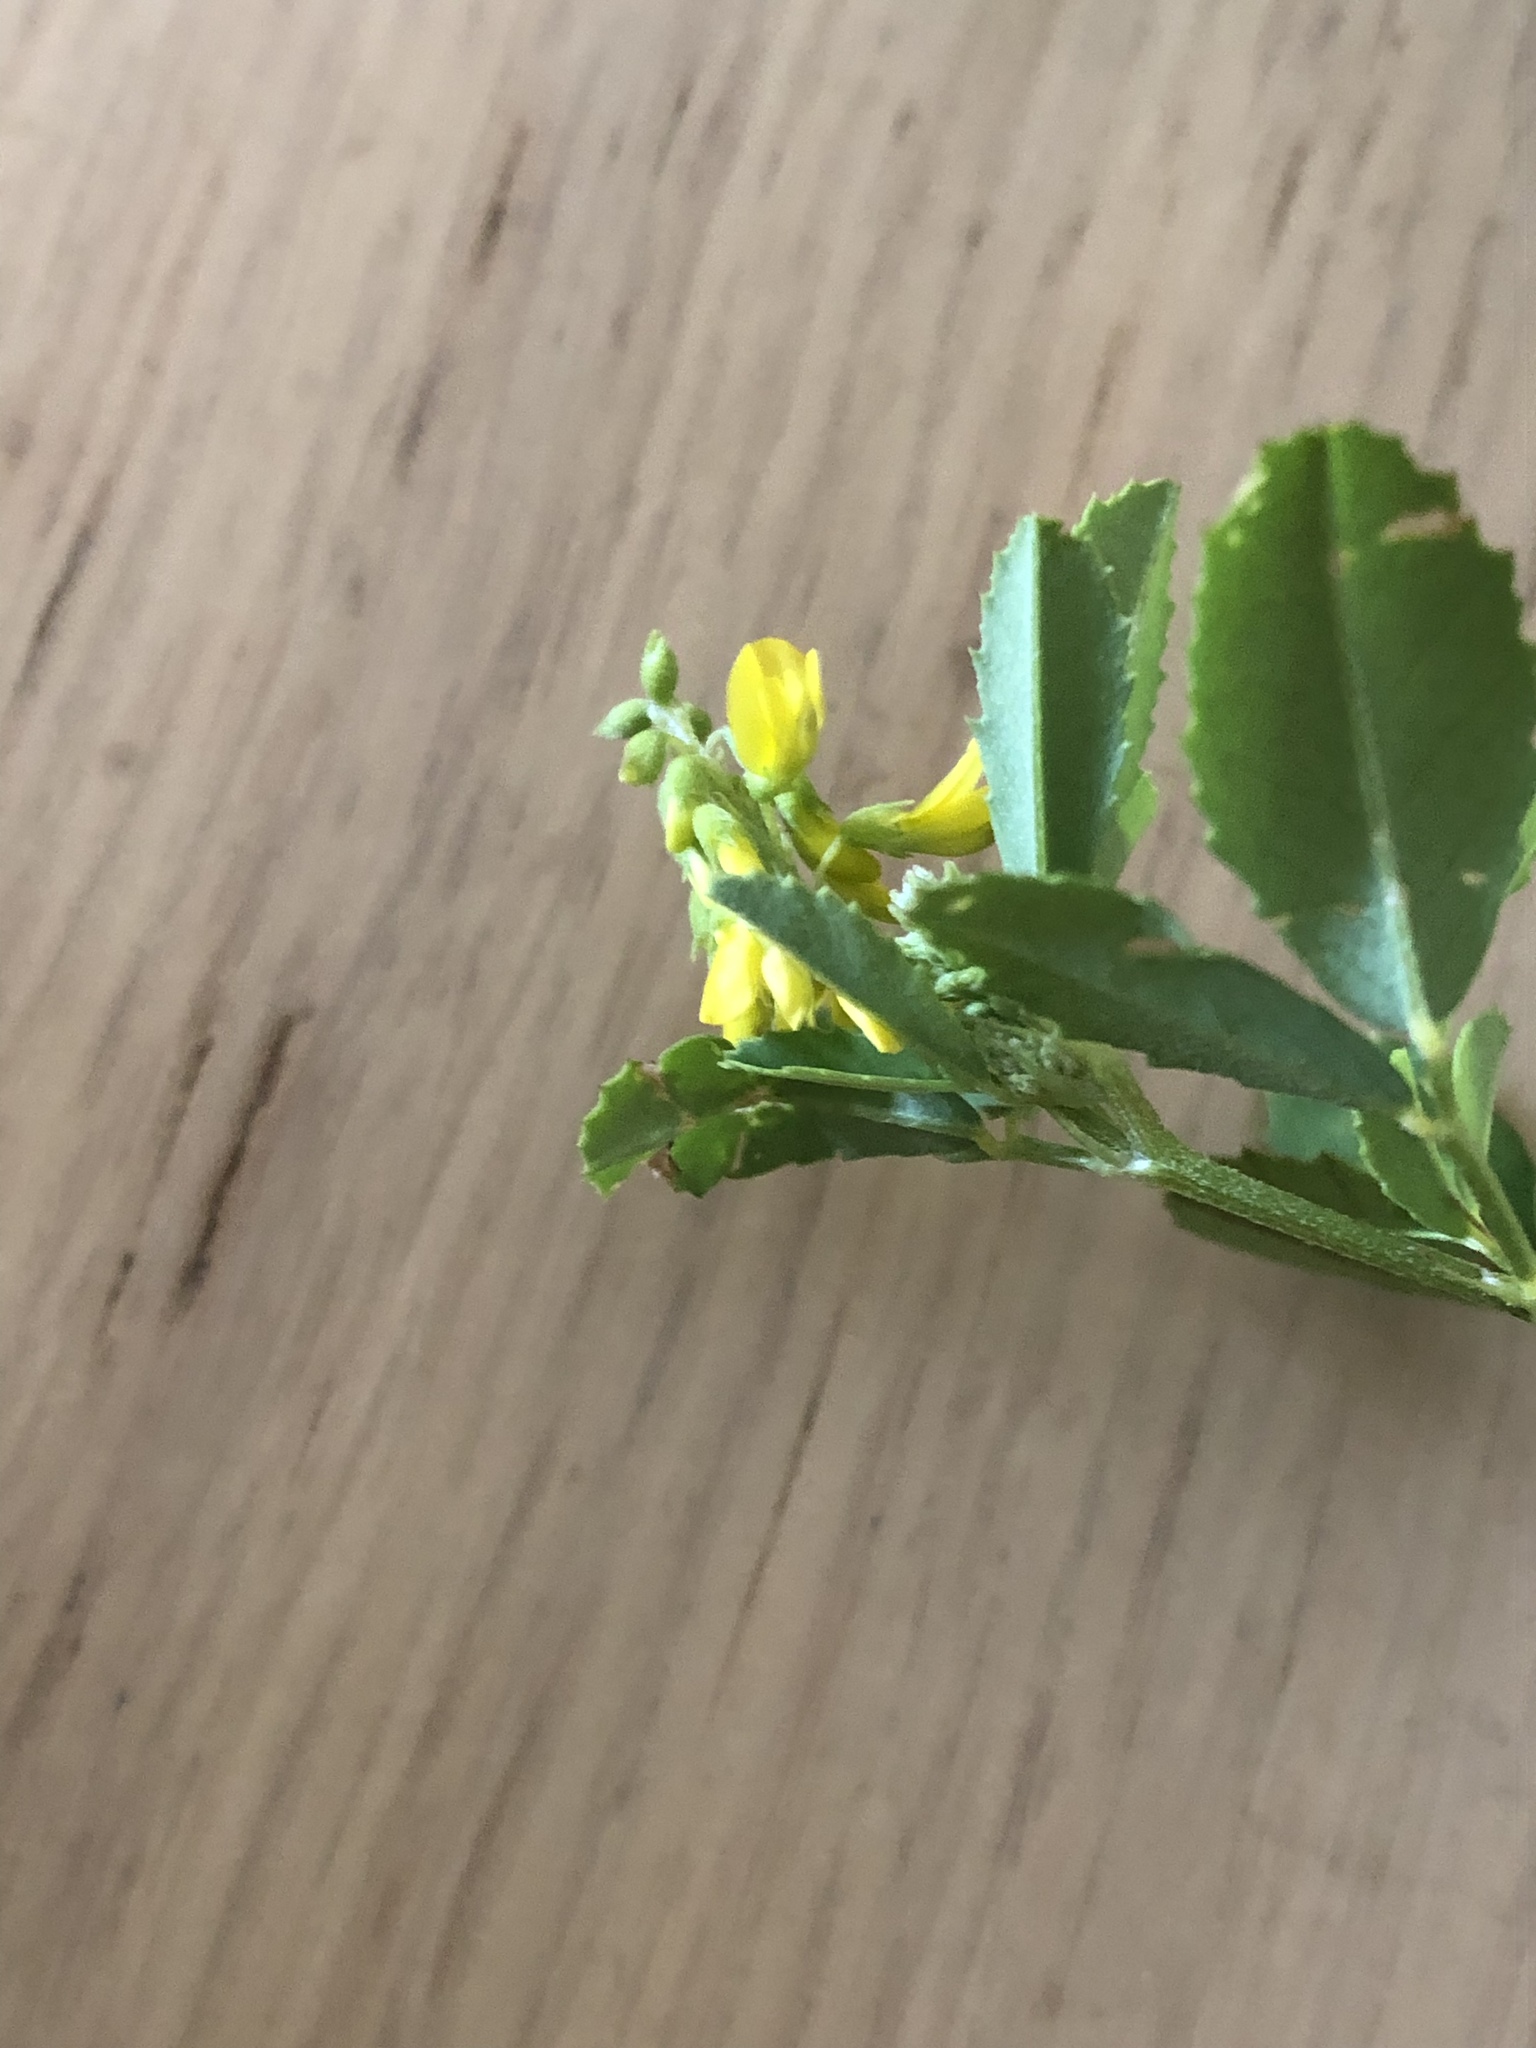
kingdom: Plantae
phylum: Tracheophyta
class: Magnoliopsida
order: Fabales
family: Fabaceae
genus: Melilotus
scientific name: Melilotus officinalis
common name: Sweetclover
